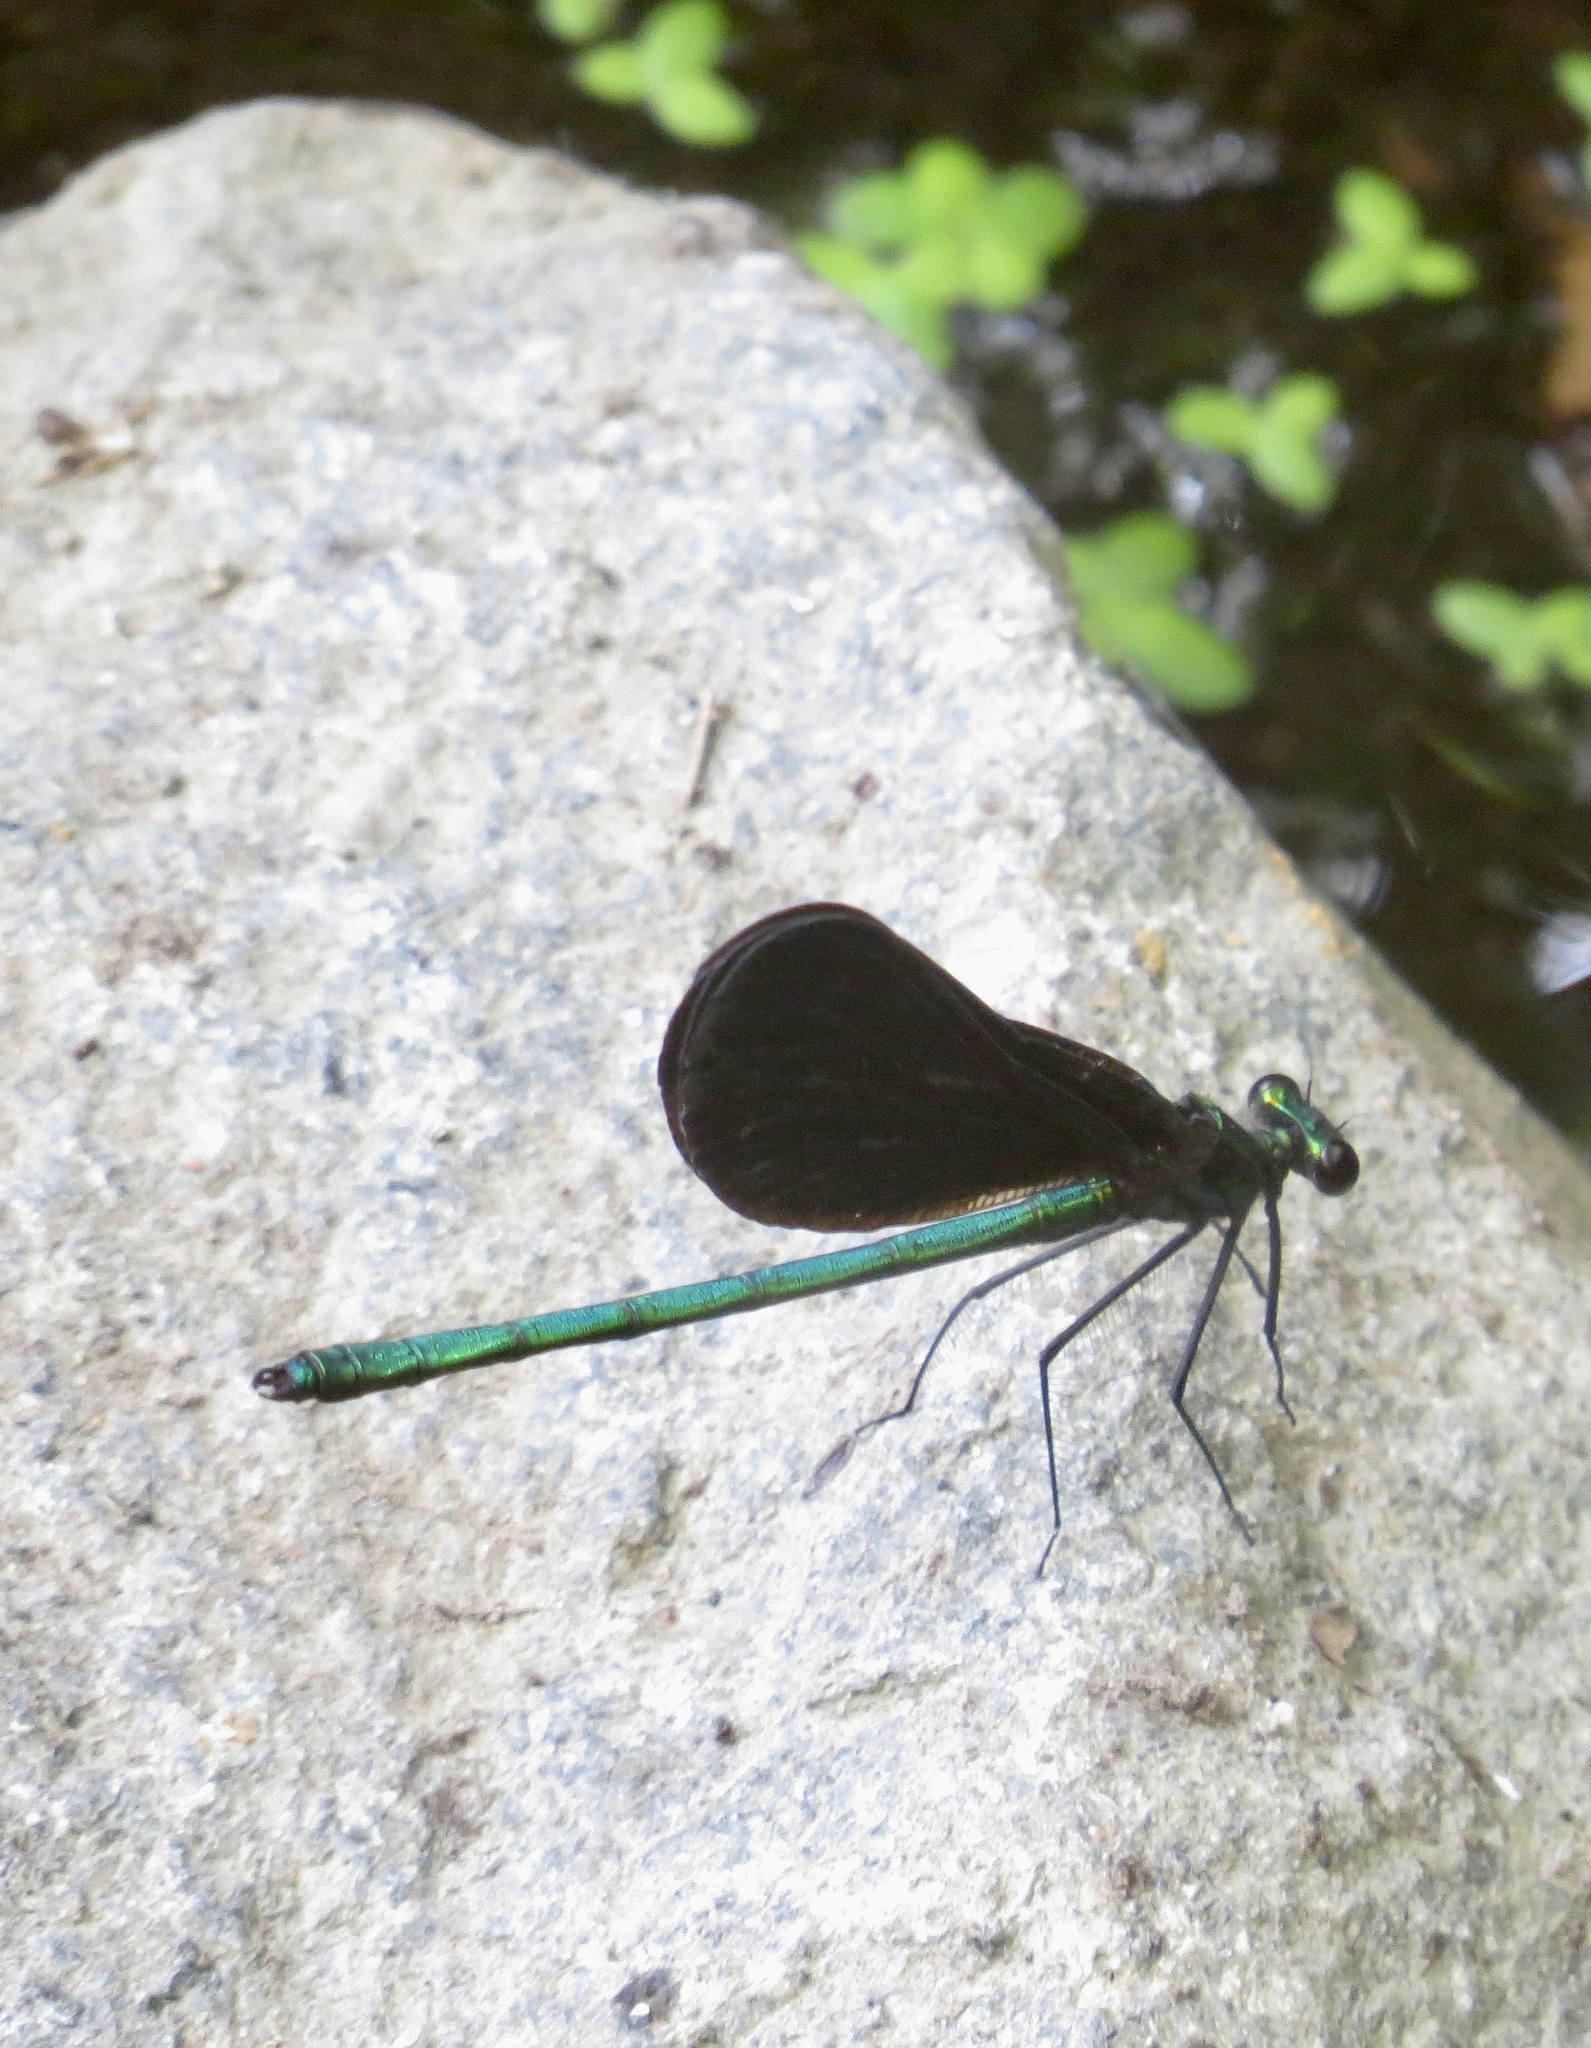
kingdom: Animalia
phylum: Arthropoda
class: Insecta
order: Odonata
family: Calopterygidae
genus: Calopteryx
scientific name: Calopteryx maculata
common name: Ebony jewelwing
